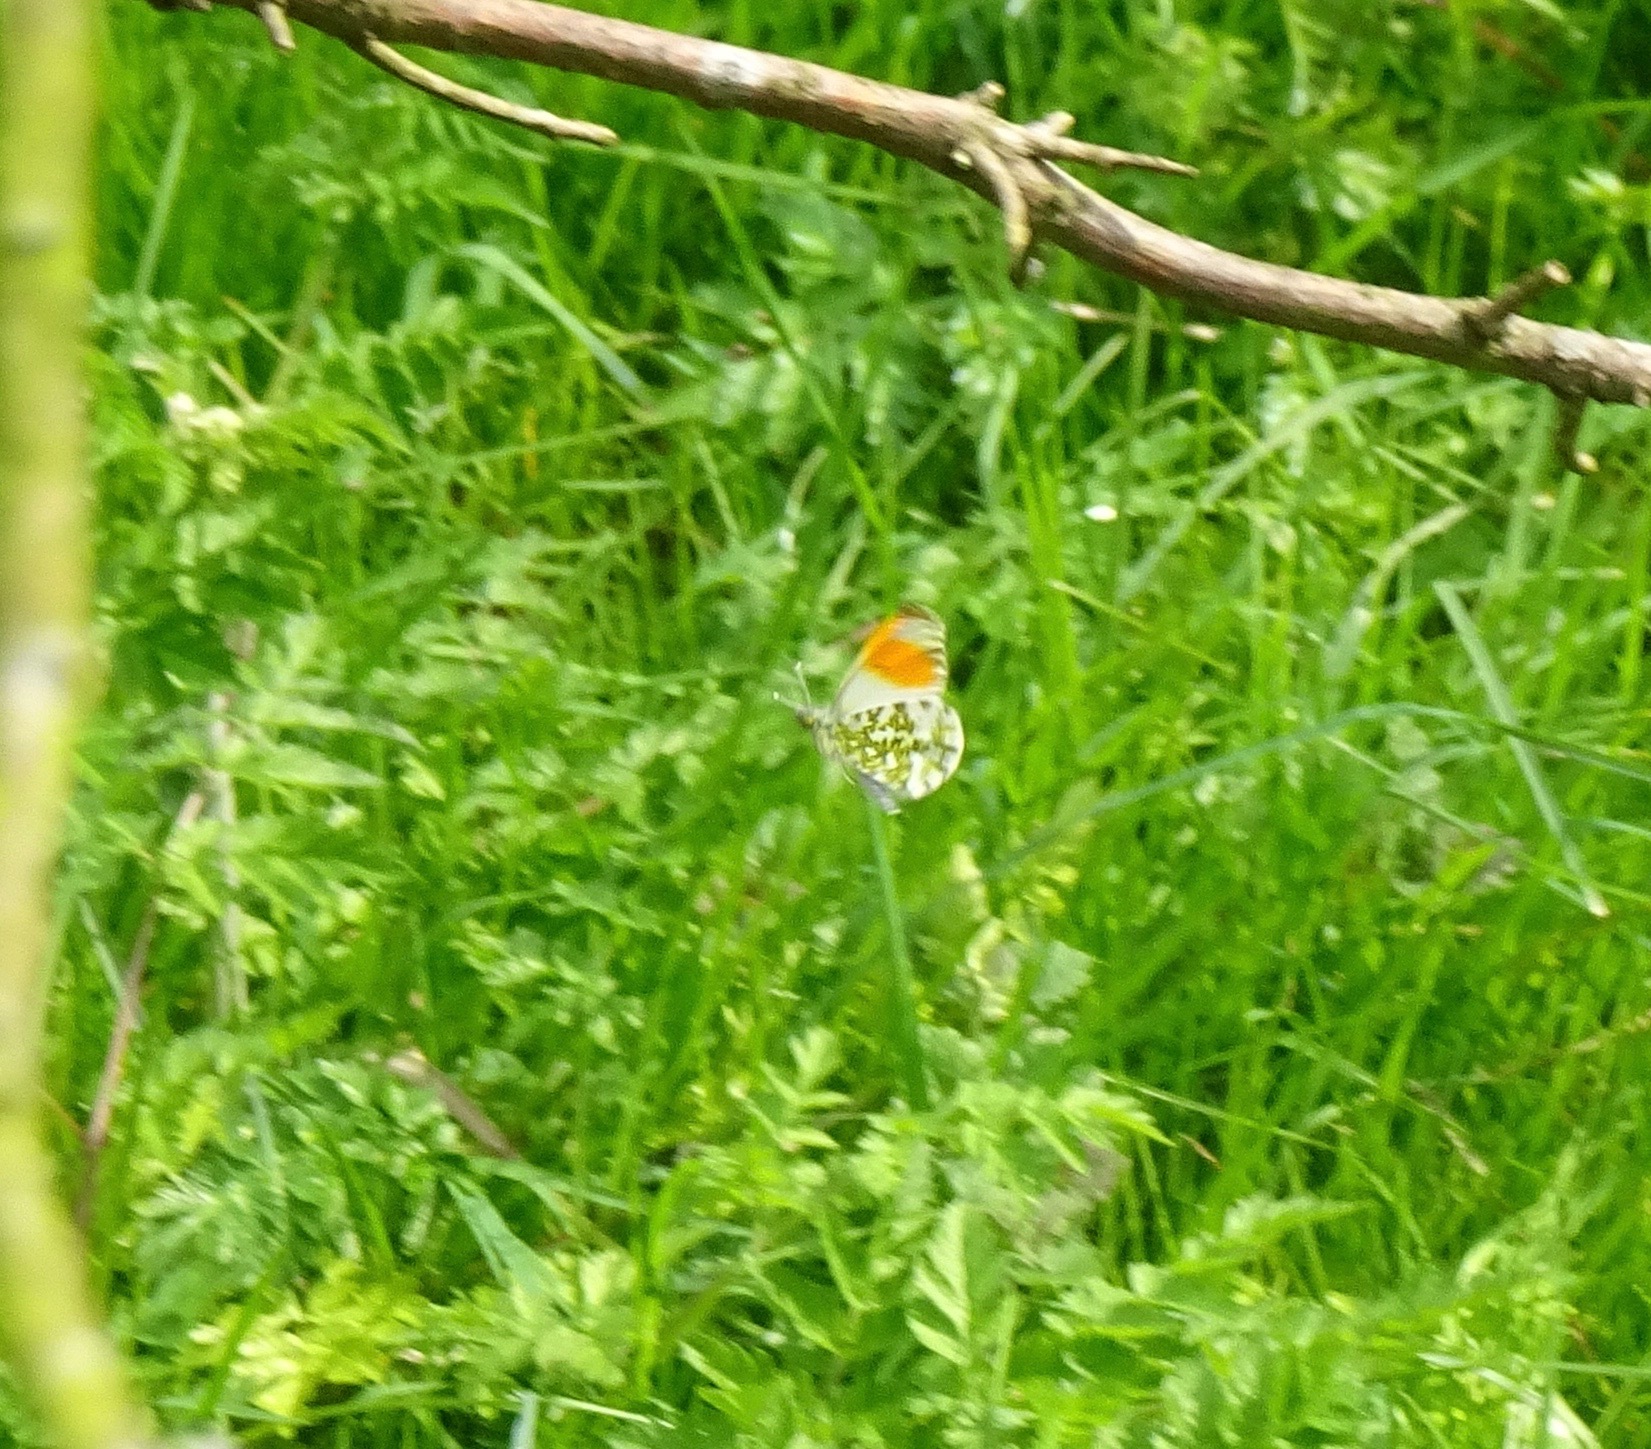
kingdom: Animalia
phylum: Arthropoda
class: Insecta
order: Lepidoptera
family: Pieridae
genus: Anthocharis
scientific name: Anthocharis cardamines
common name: Orange-tip
